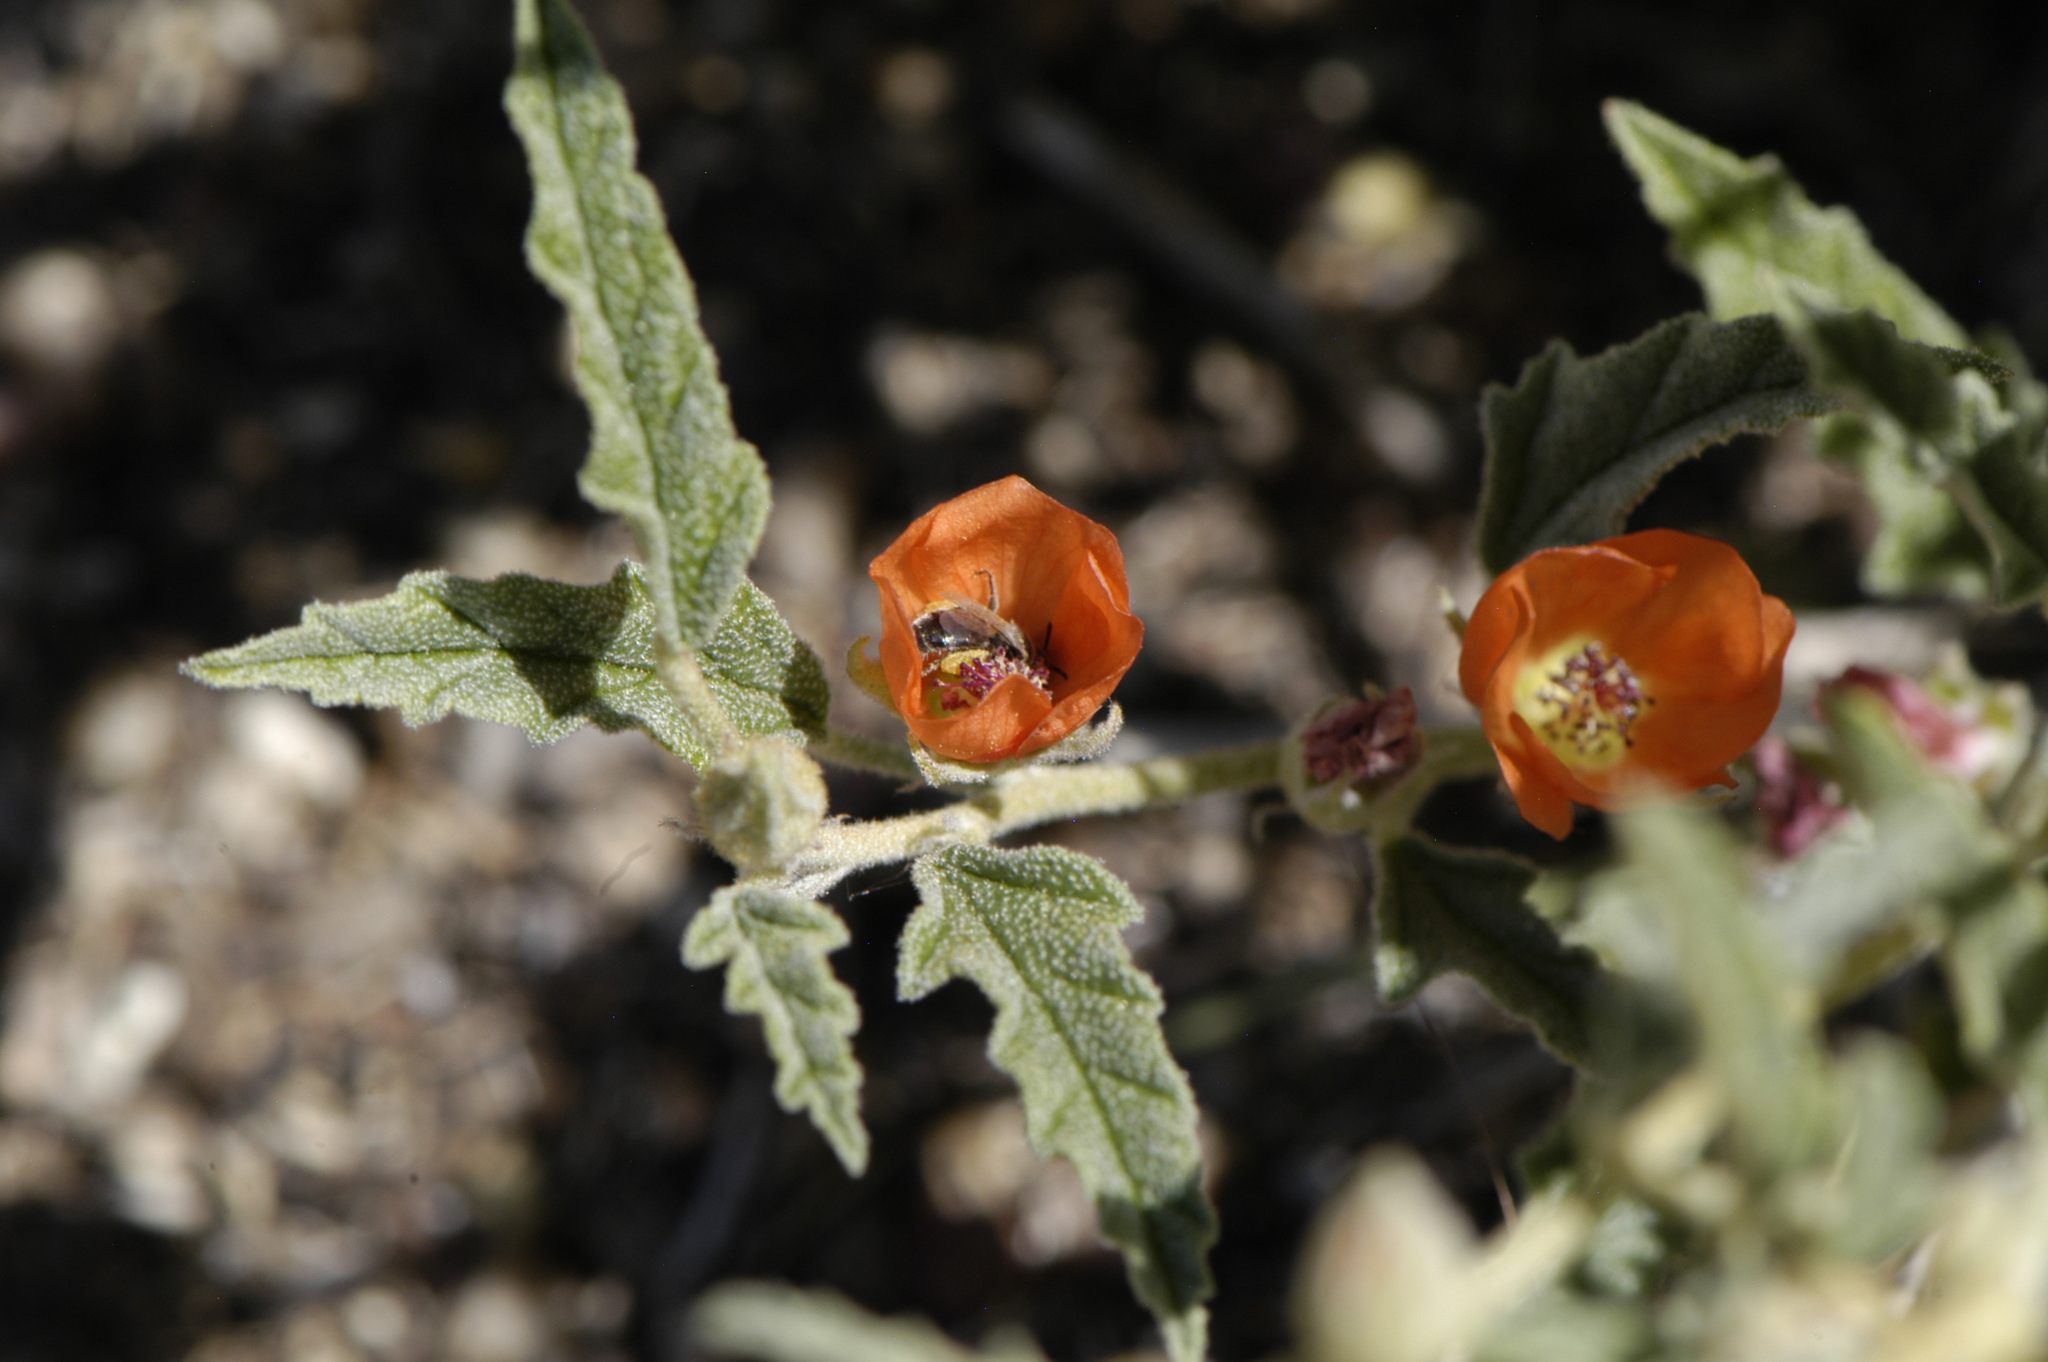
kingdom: Plantae
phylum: Tracheophyta
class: Magnoliopsida
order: Malvales
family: Malvaceae
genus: Sphaeralcea
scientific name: Sphaeralcea hastulata
